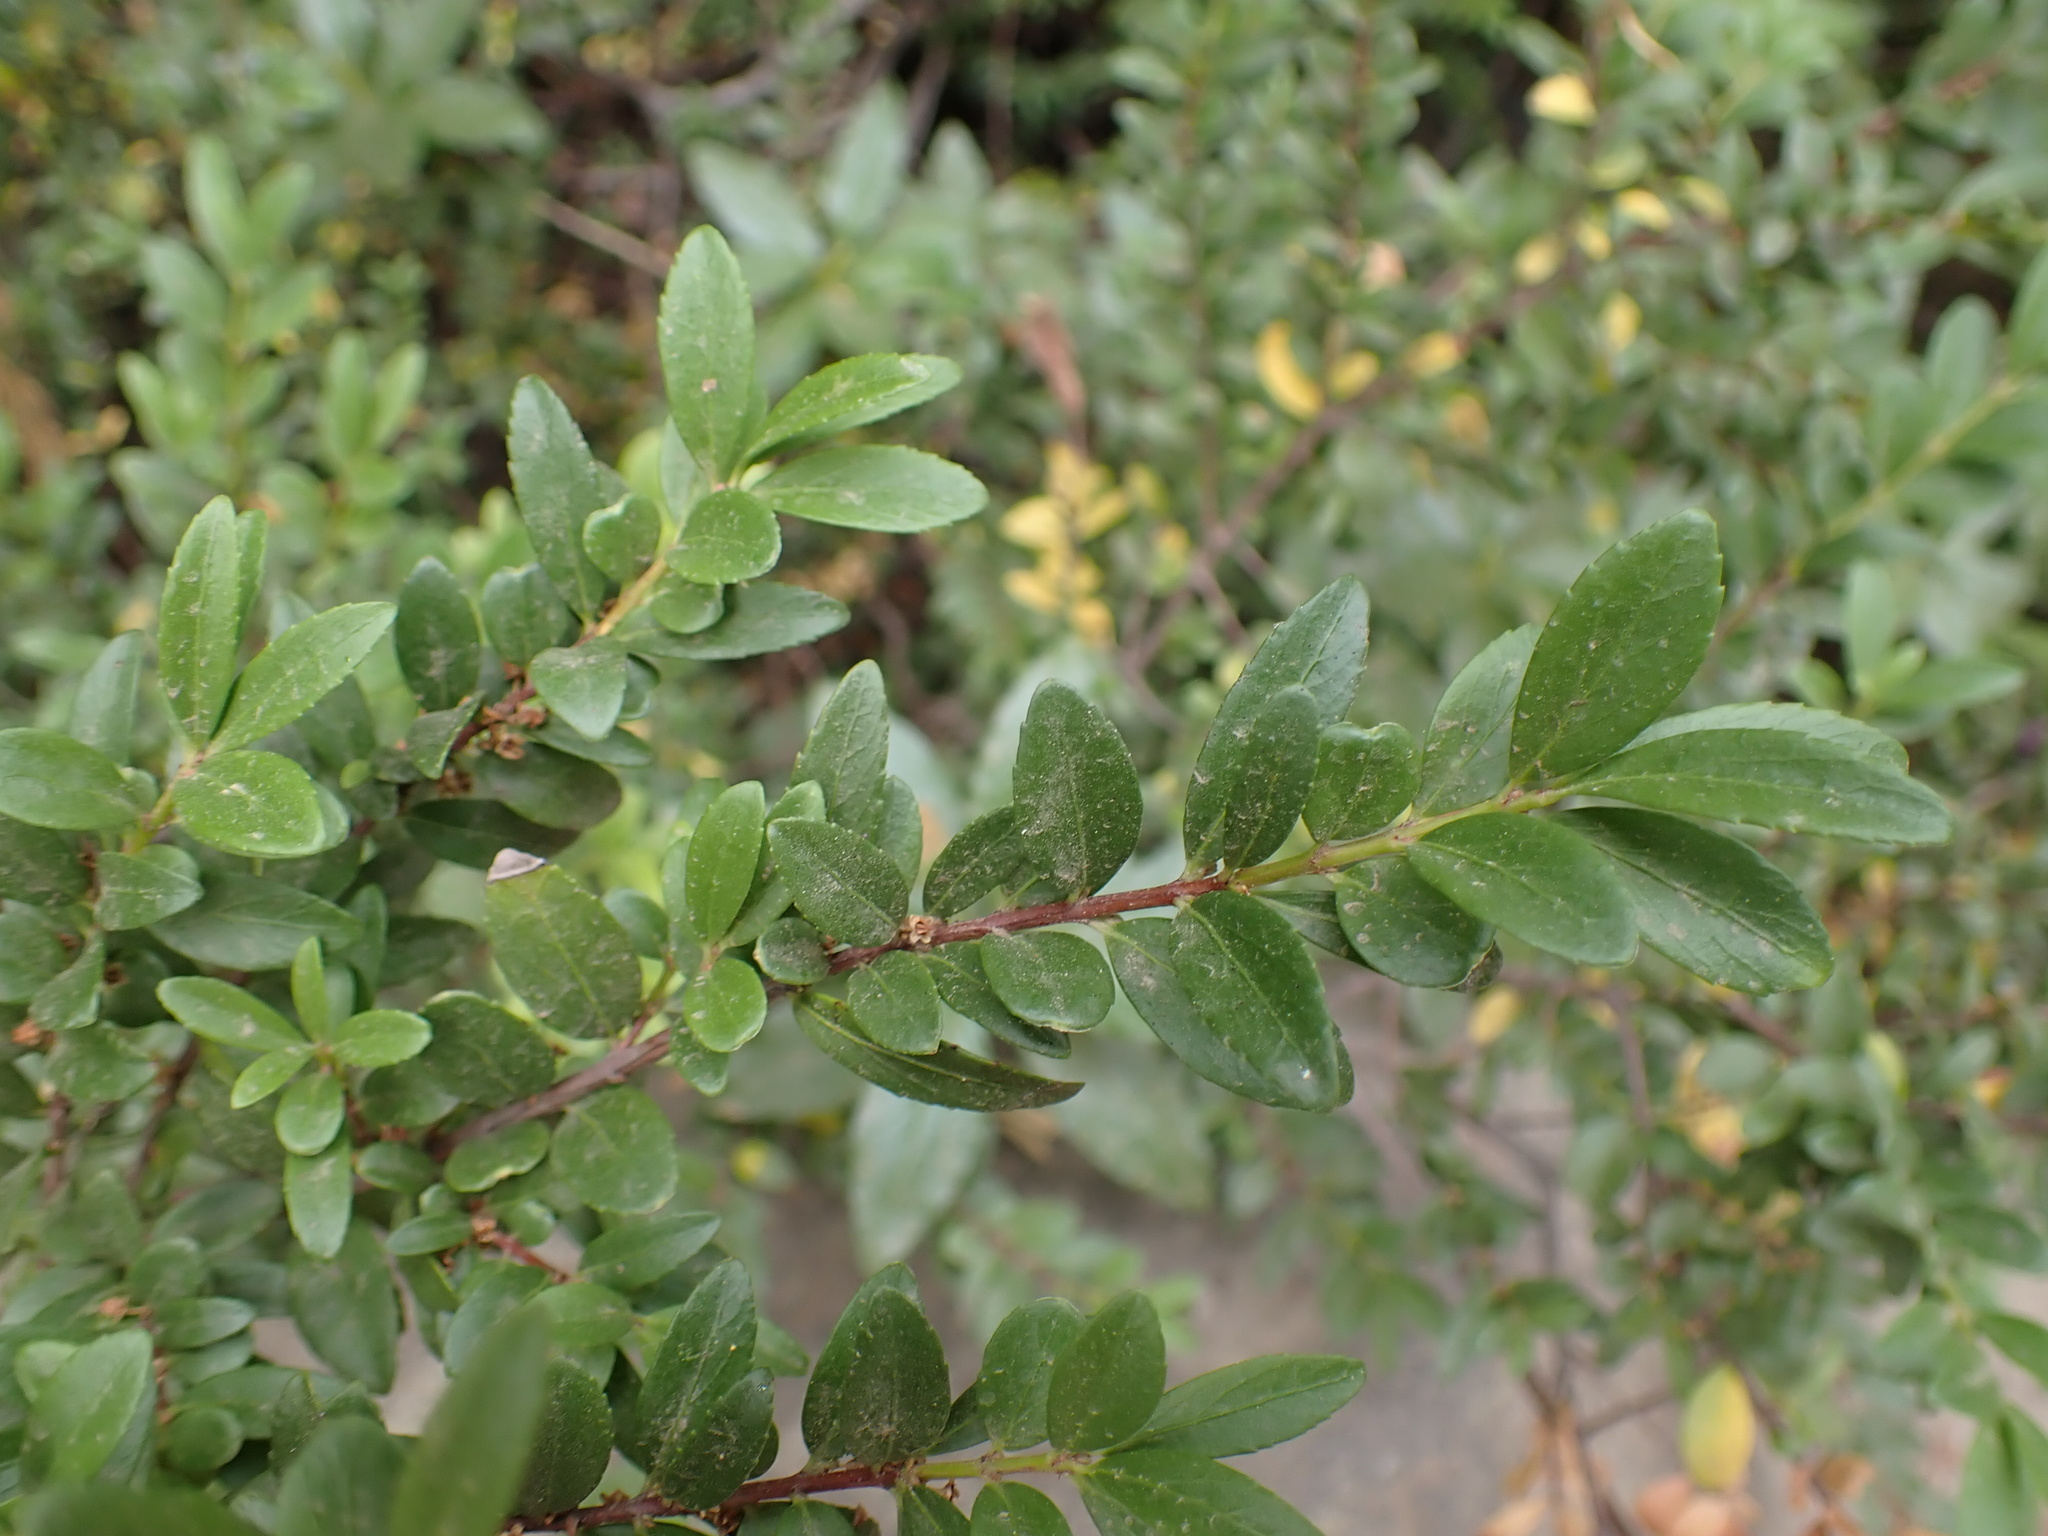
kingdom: Plantae
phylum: Tracheophyta
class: Magnoliopsida
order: Celastrales
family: Celastraceae
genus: Paxistima
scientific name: Paxistima myrsinites
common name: Mountain-lover
